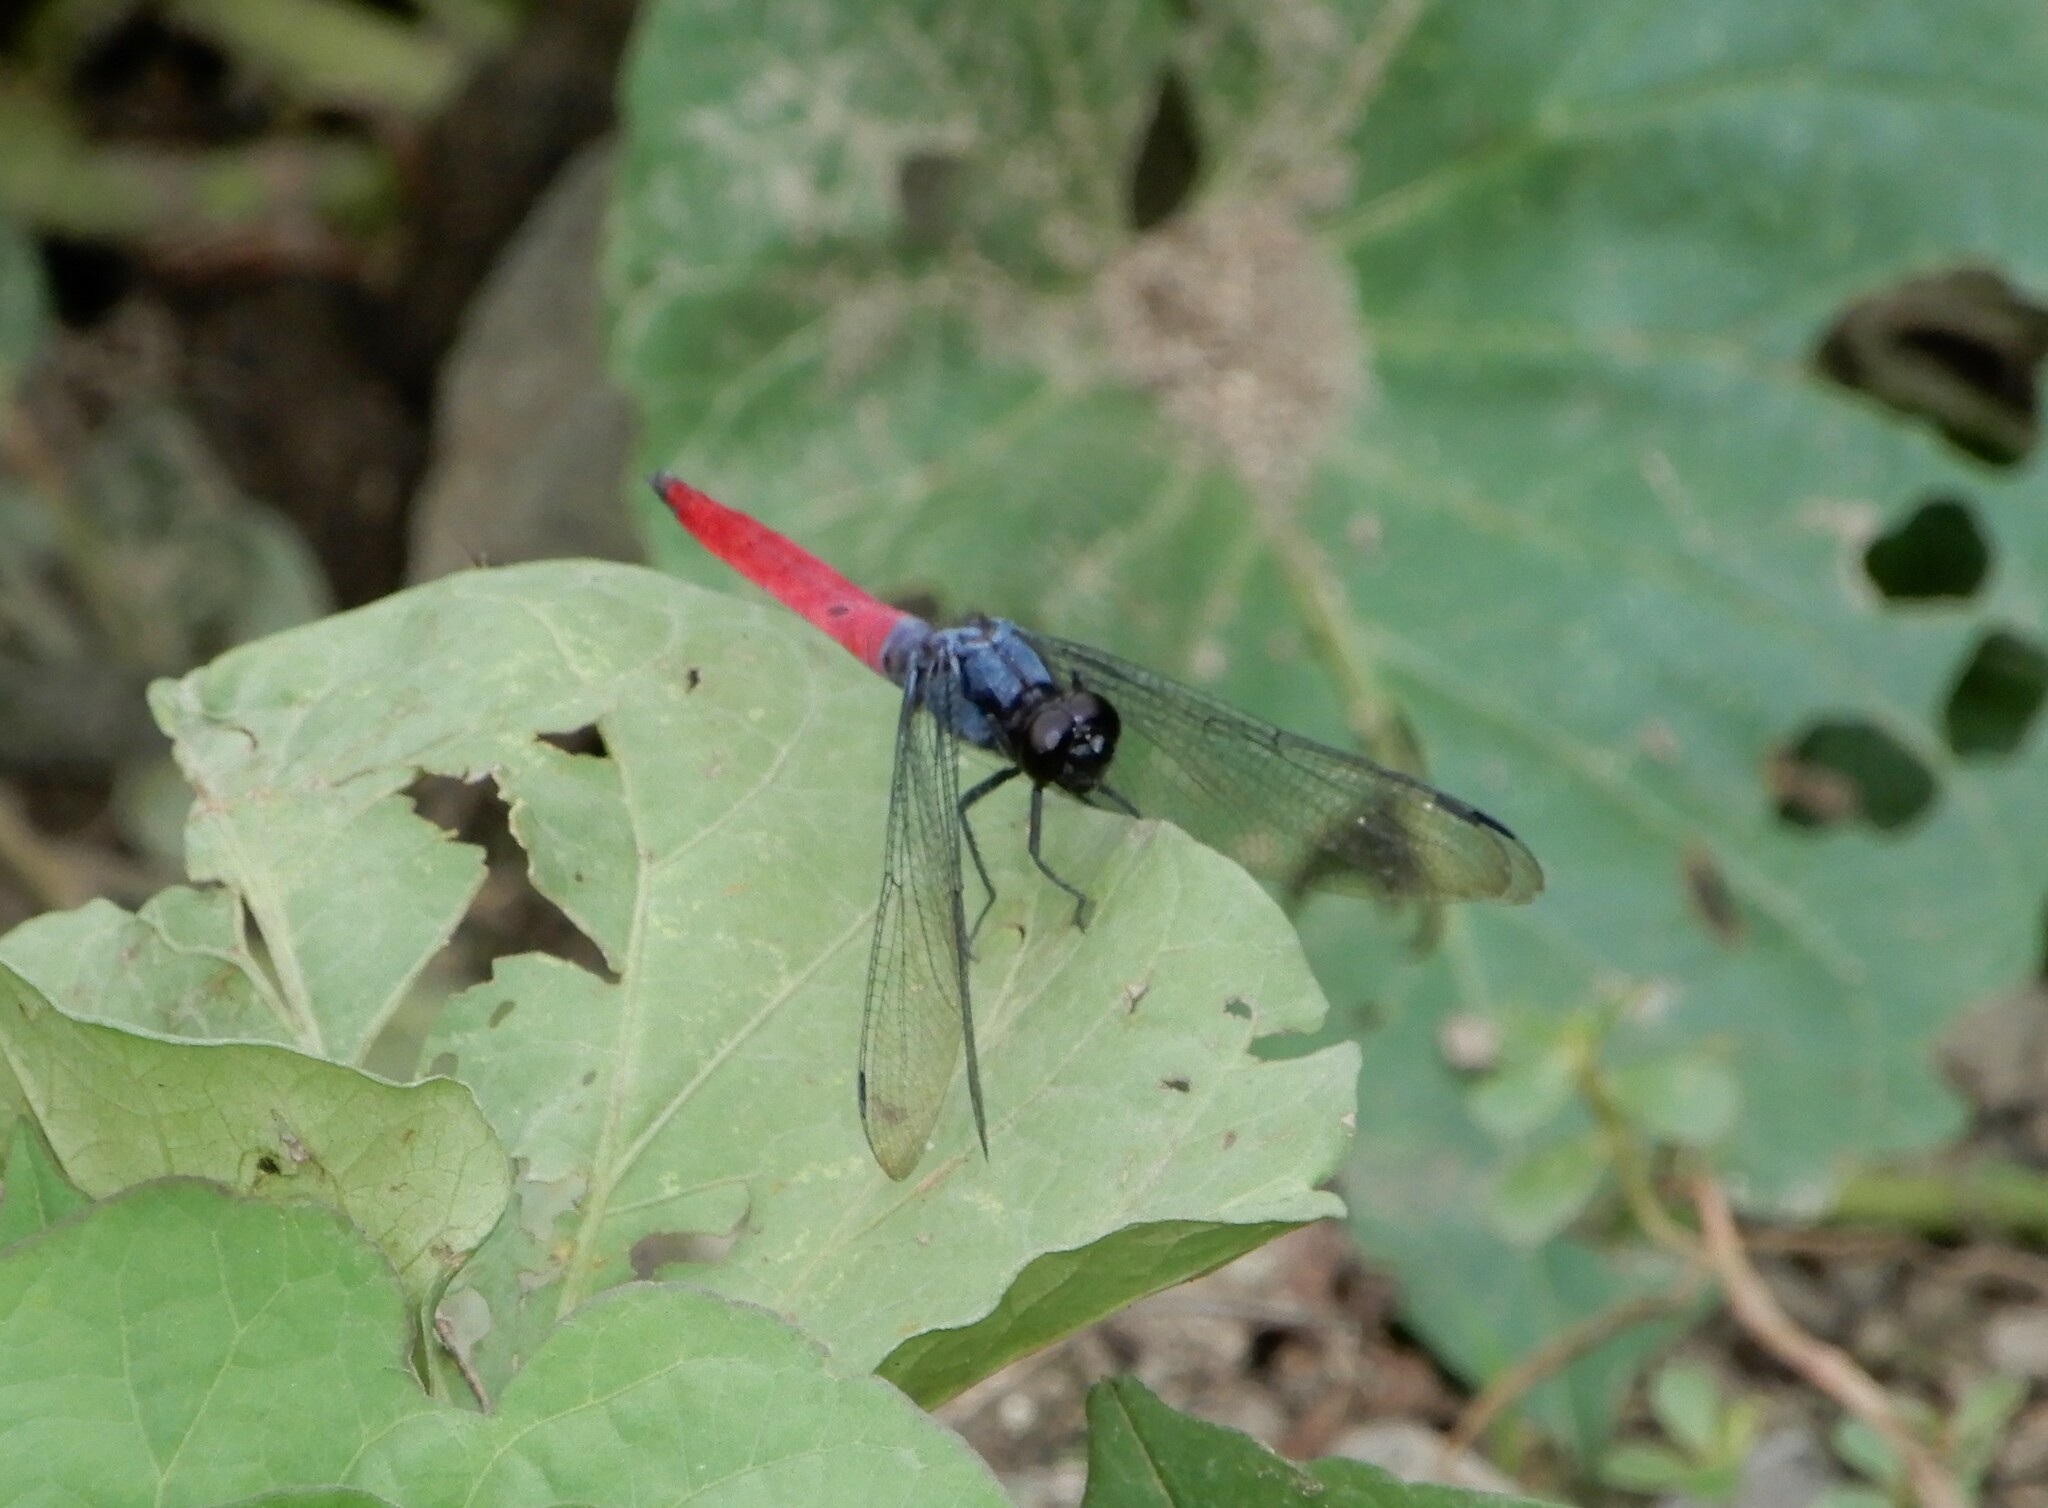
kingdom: Animalia
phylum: Arthropoda
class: Insecta
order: Odonata
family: Libellulidae
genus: Orthetrum
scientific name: Orthetrum pruinosum
